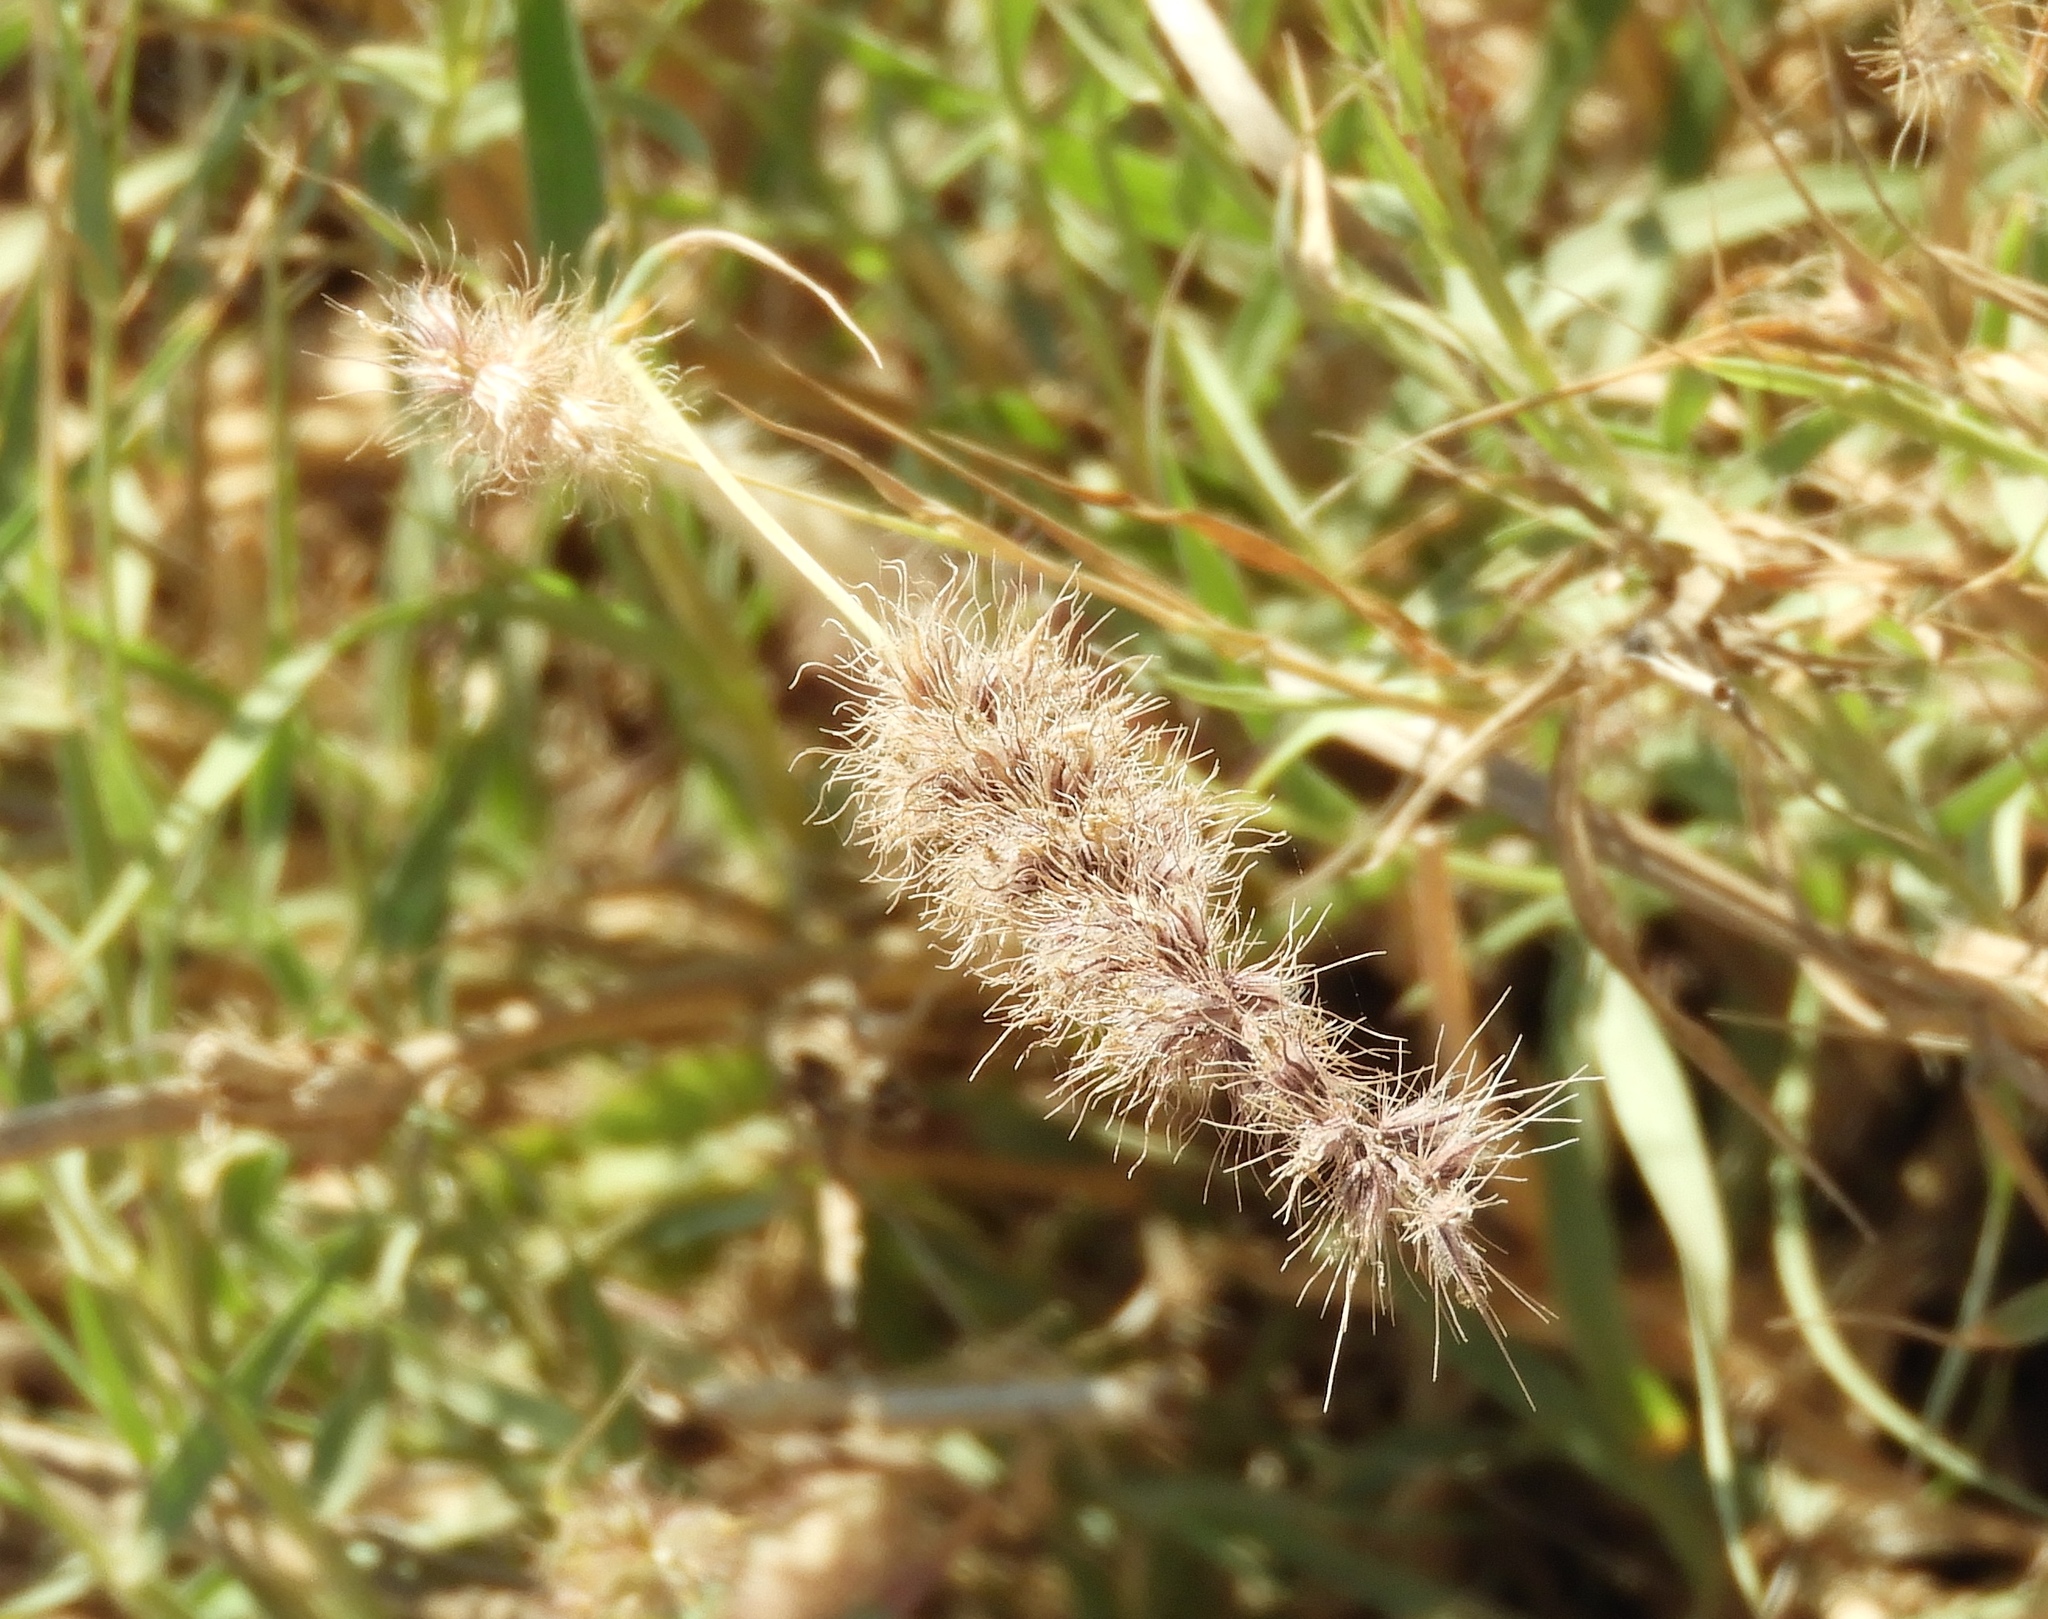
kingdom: Plantae
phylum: Tracheophyta
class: Liliopsida
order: Poales
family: Poaceae
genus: Cenchrus
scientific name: Cenchrus ciliaris
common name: Buffelgrass
